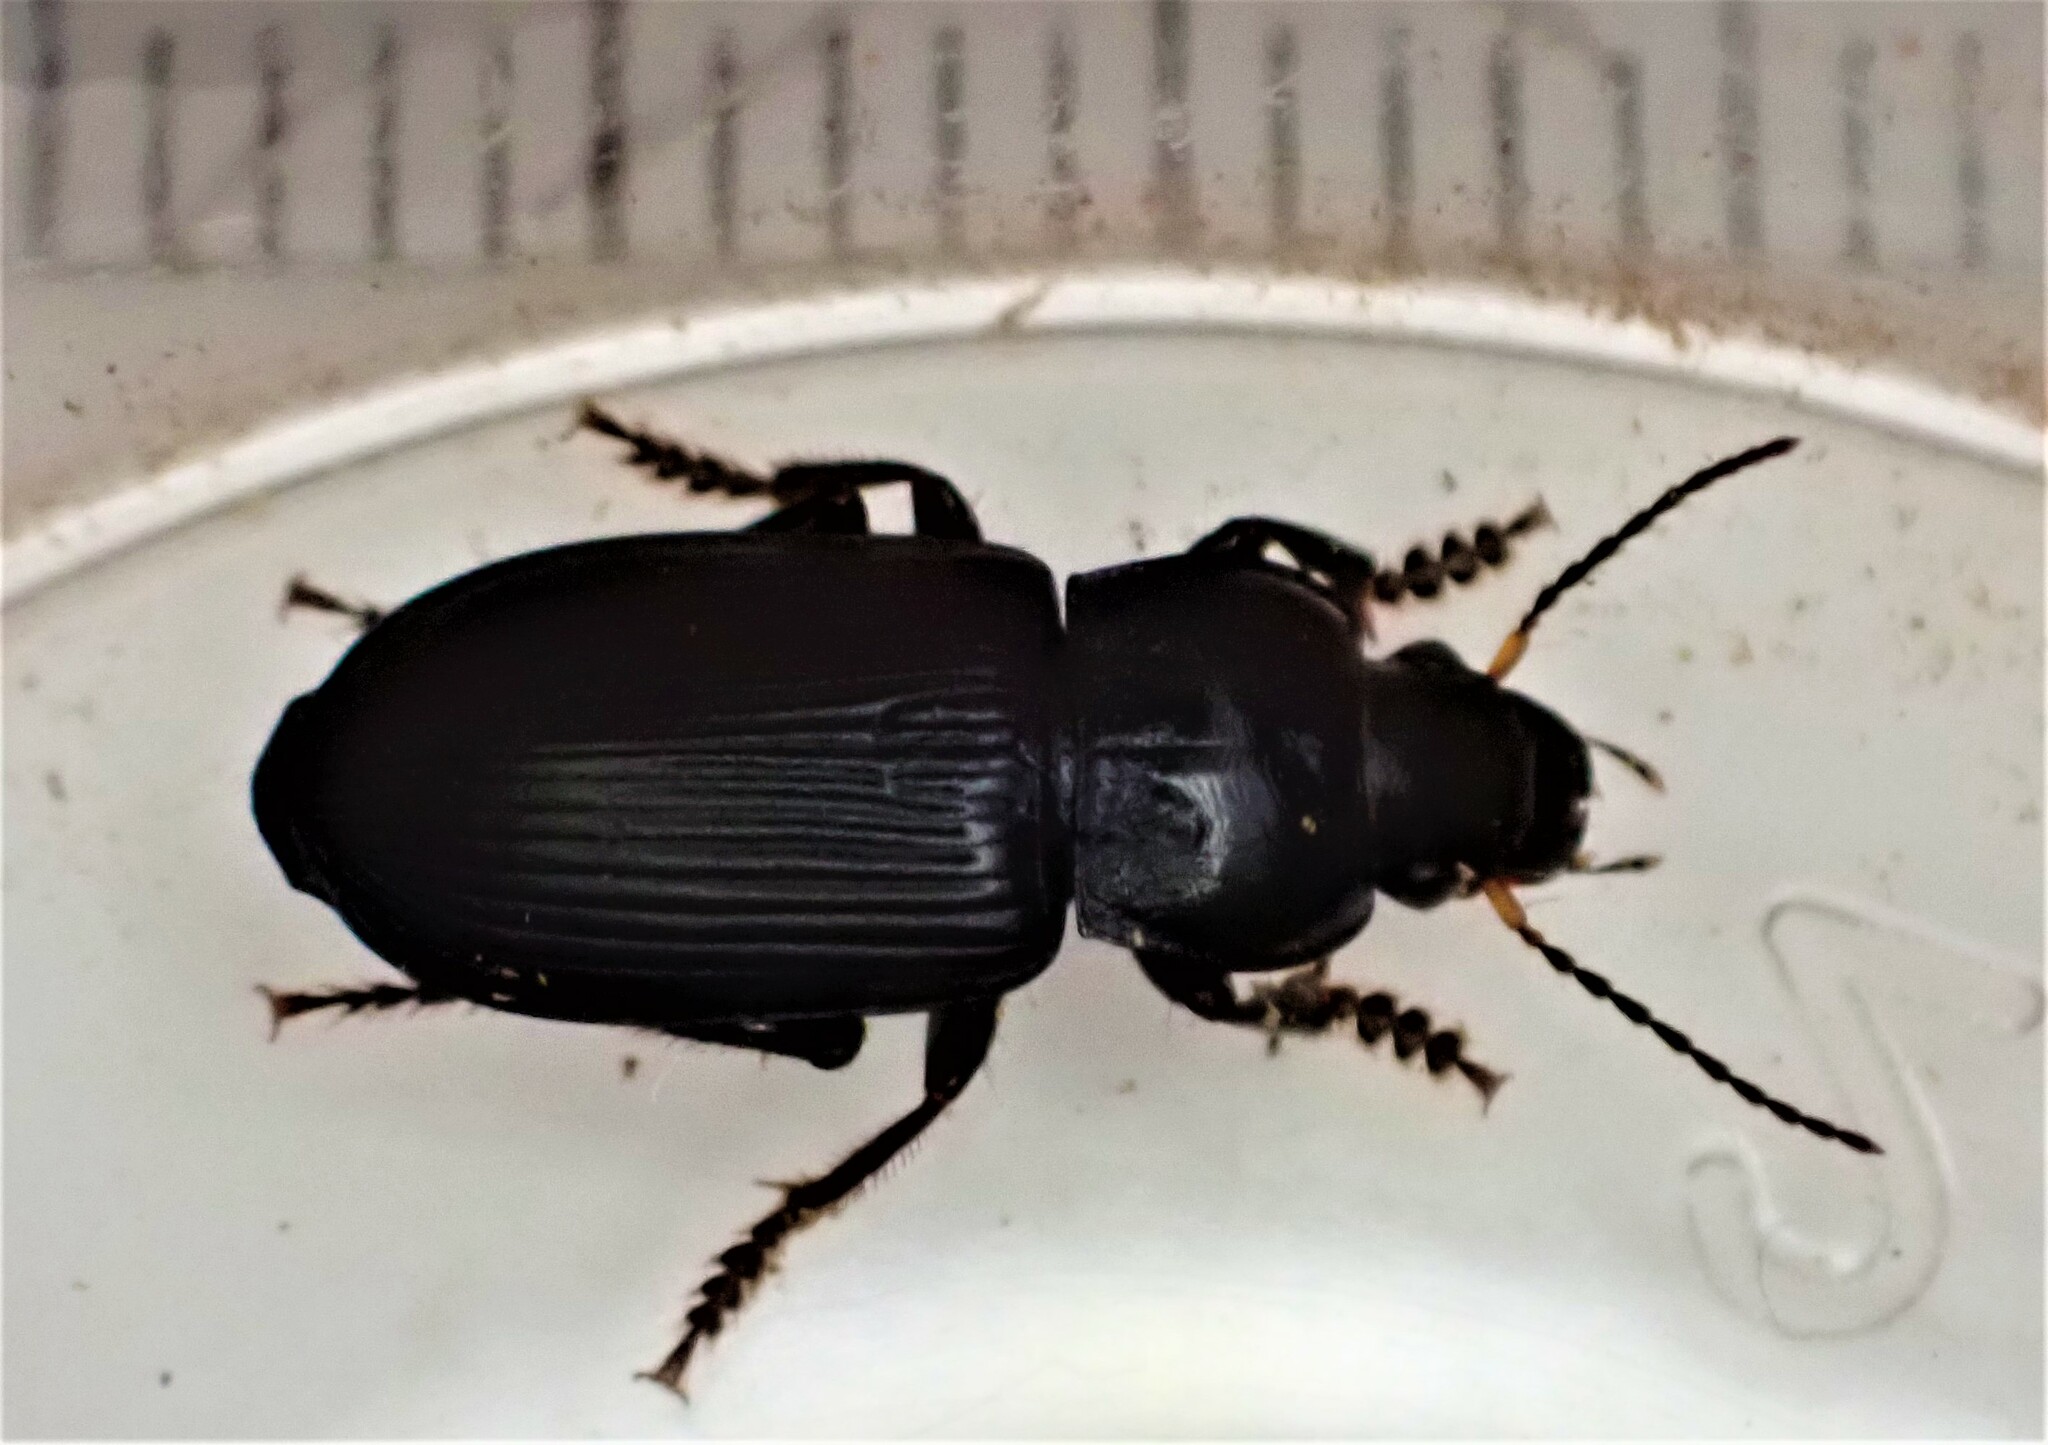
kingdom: Animalia
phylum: Arthropoda
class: Insecta
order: Coleoptera
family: Carabidae
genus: Anisodactylus
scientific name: Anisodactylus binotatus
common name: Two-marked harp ground beetle
